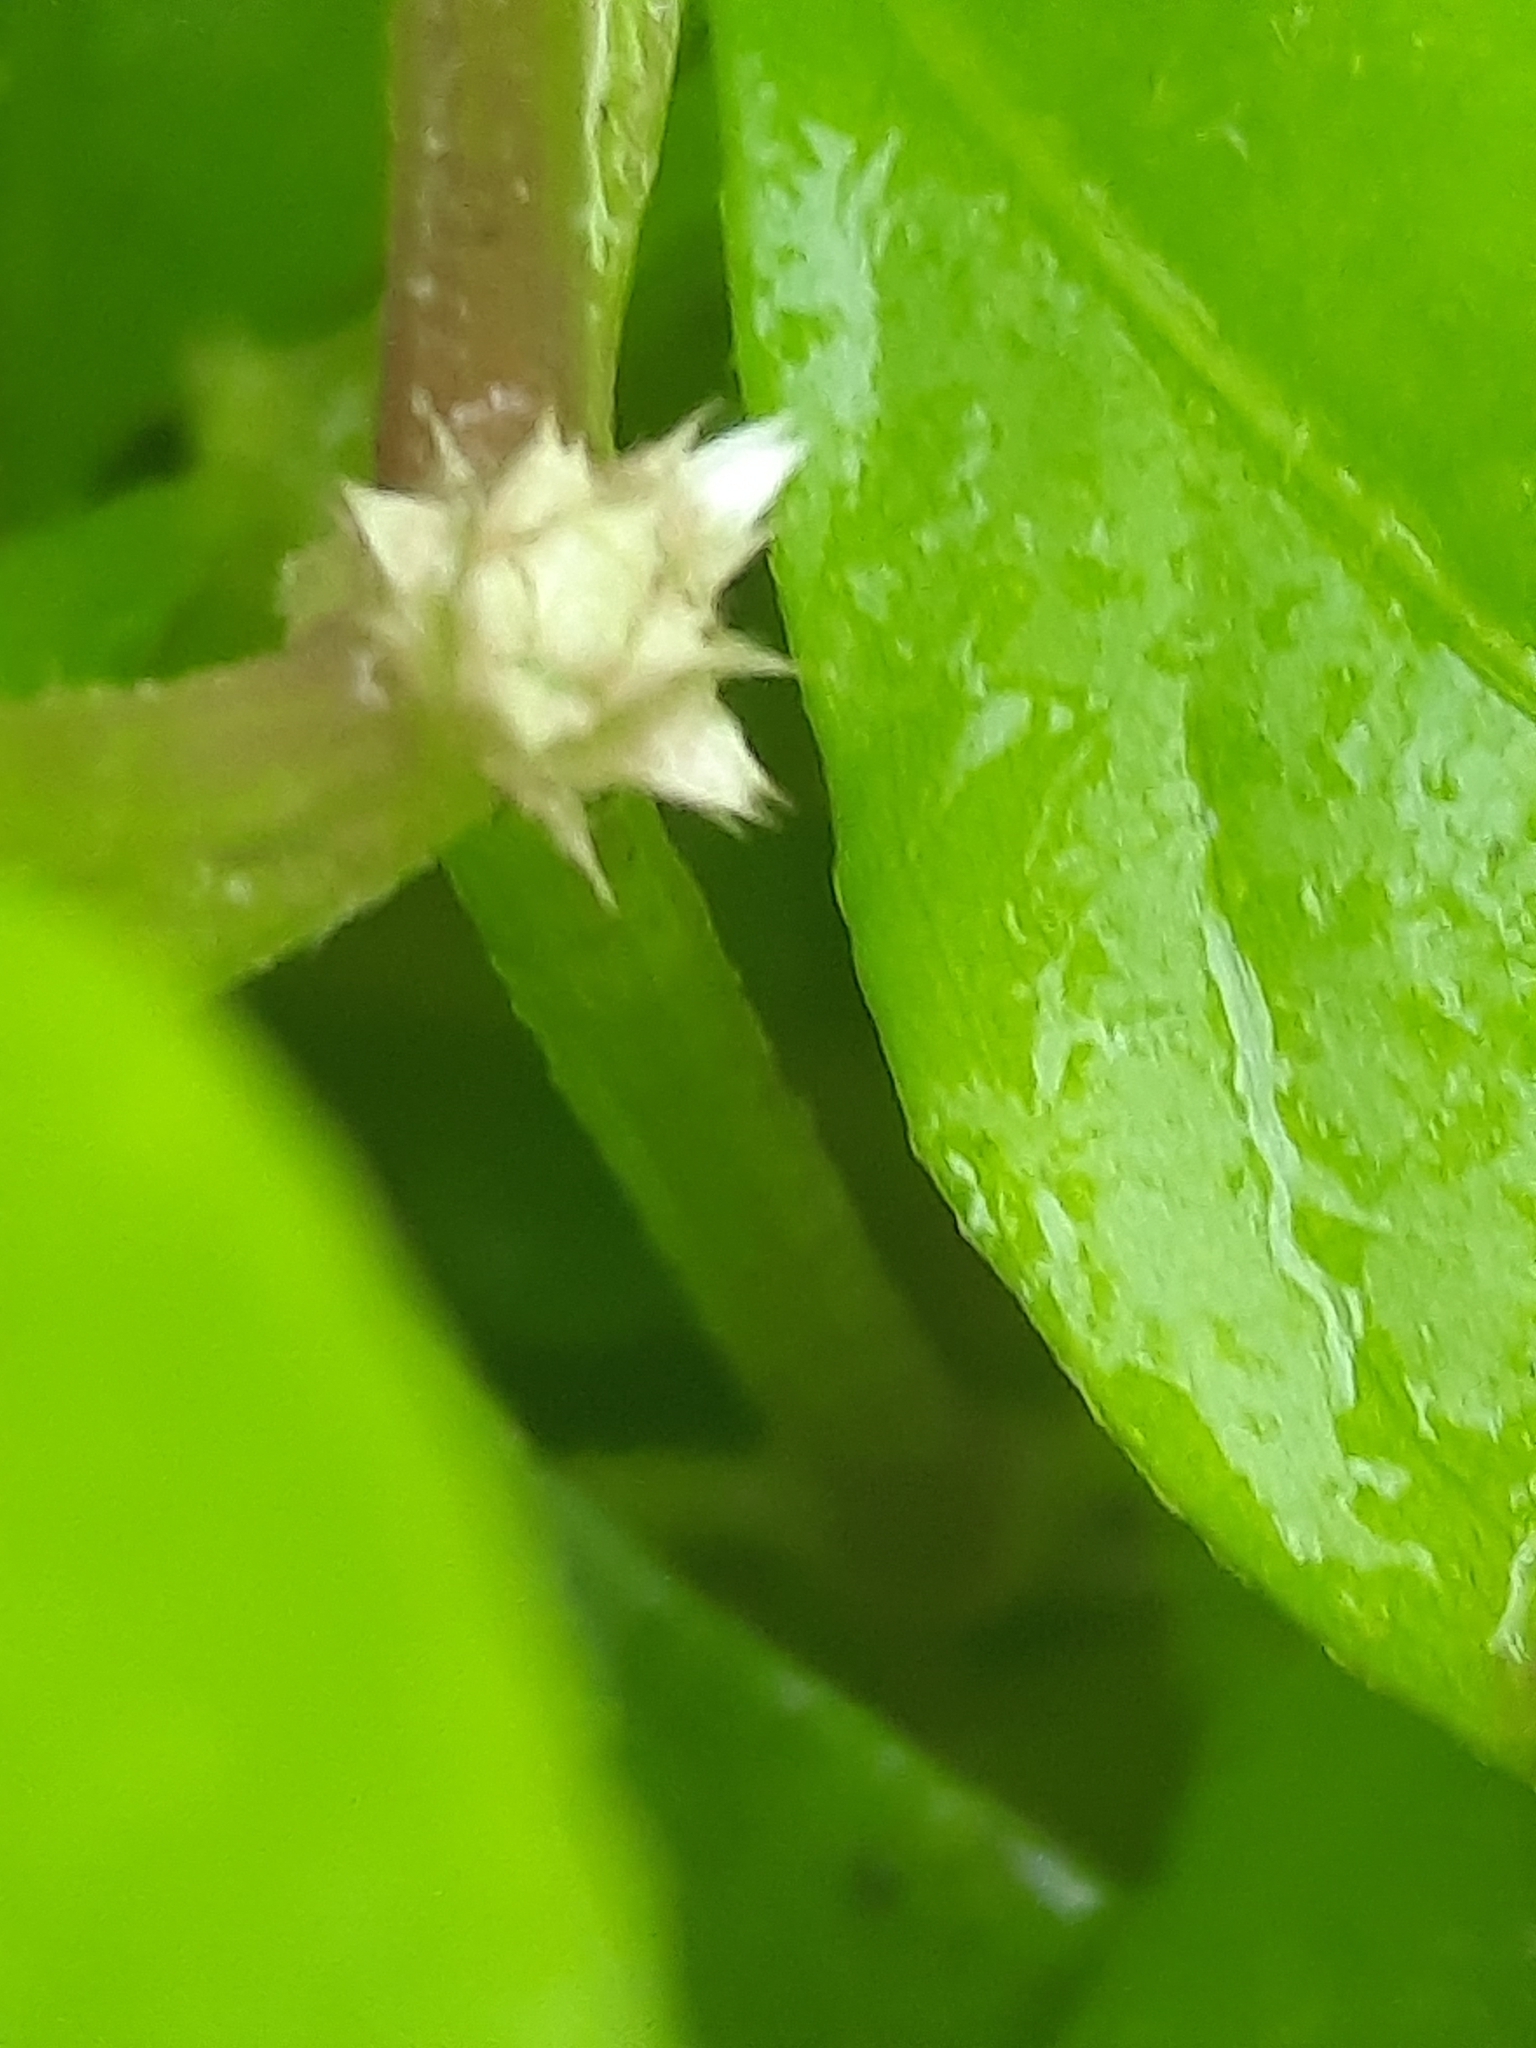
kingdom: Plantae
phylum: Tracheophyta
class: Magnoliopsida
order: Caryophyllales
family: Amaranthaceae
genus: Alternanthera
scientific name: Alternanthera ficoidea
